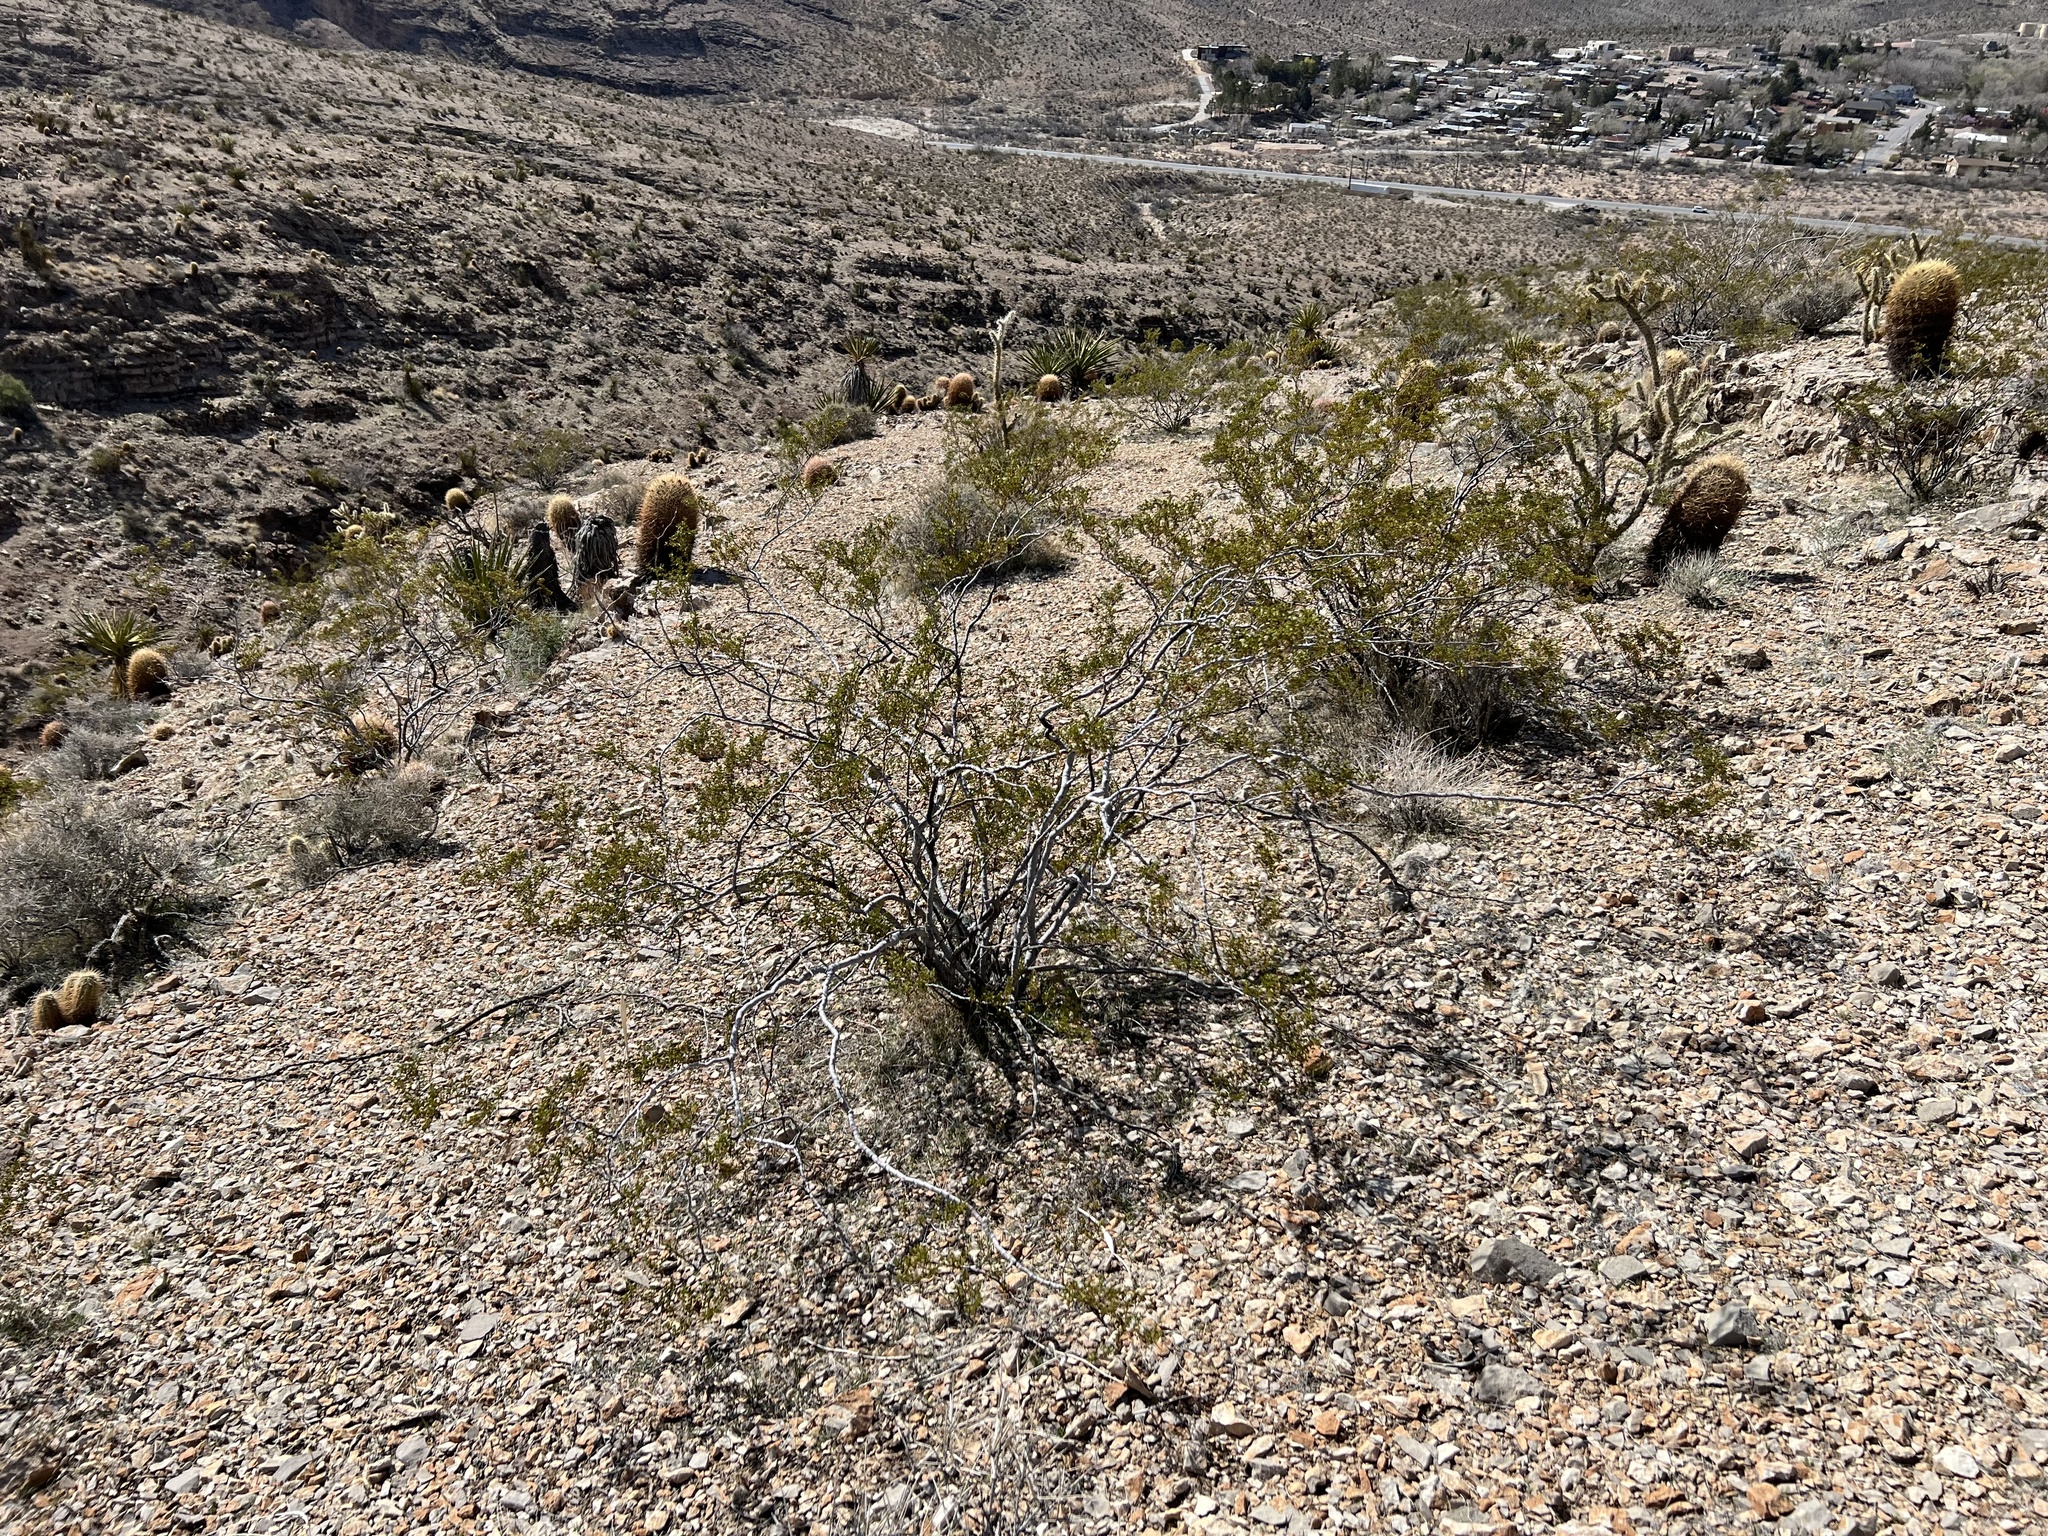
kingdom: Plantae
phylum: Tracheophyta
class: Magnoliopsida
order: Zygophyllales
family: Zygophyllaceae
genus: Larrea
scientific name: Larrea tridentata
